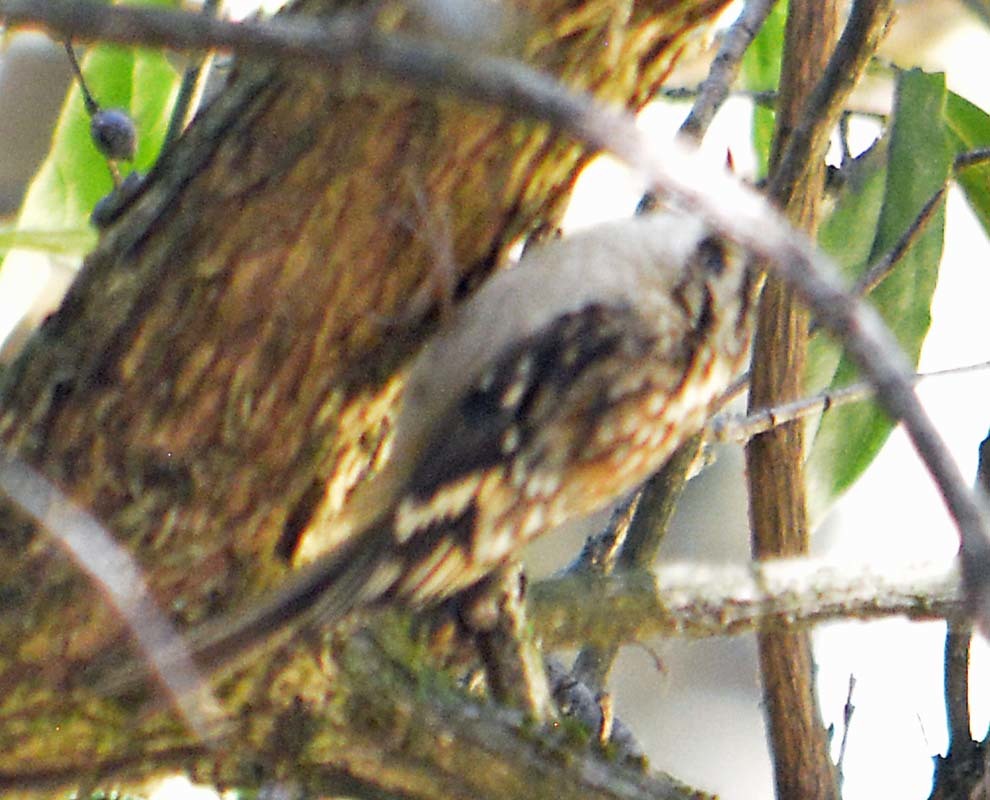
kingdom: Animalia
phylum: Chordata
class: Aves
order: Passeriformes
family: Certhiidae
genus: Certhia
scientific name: Certhia americana
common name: Brown creeper
